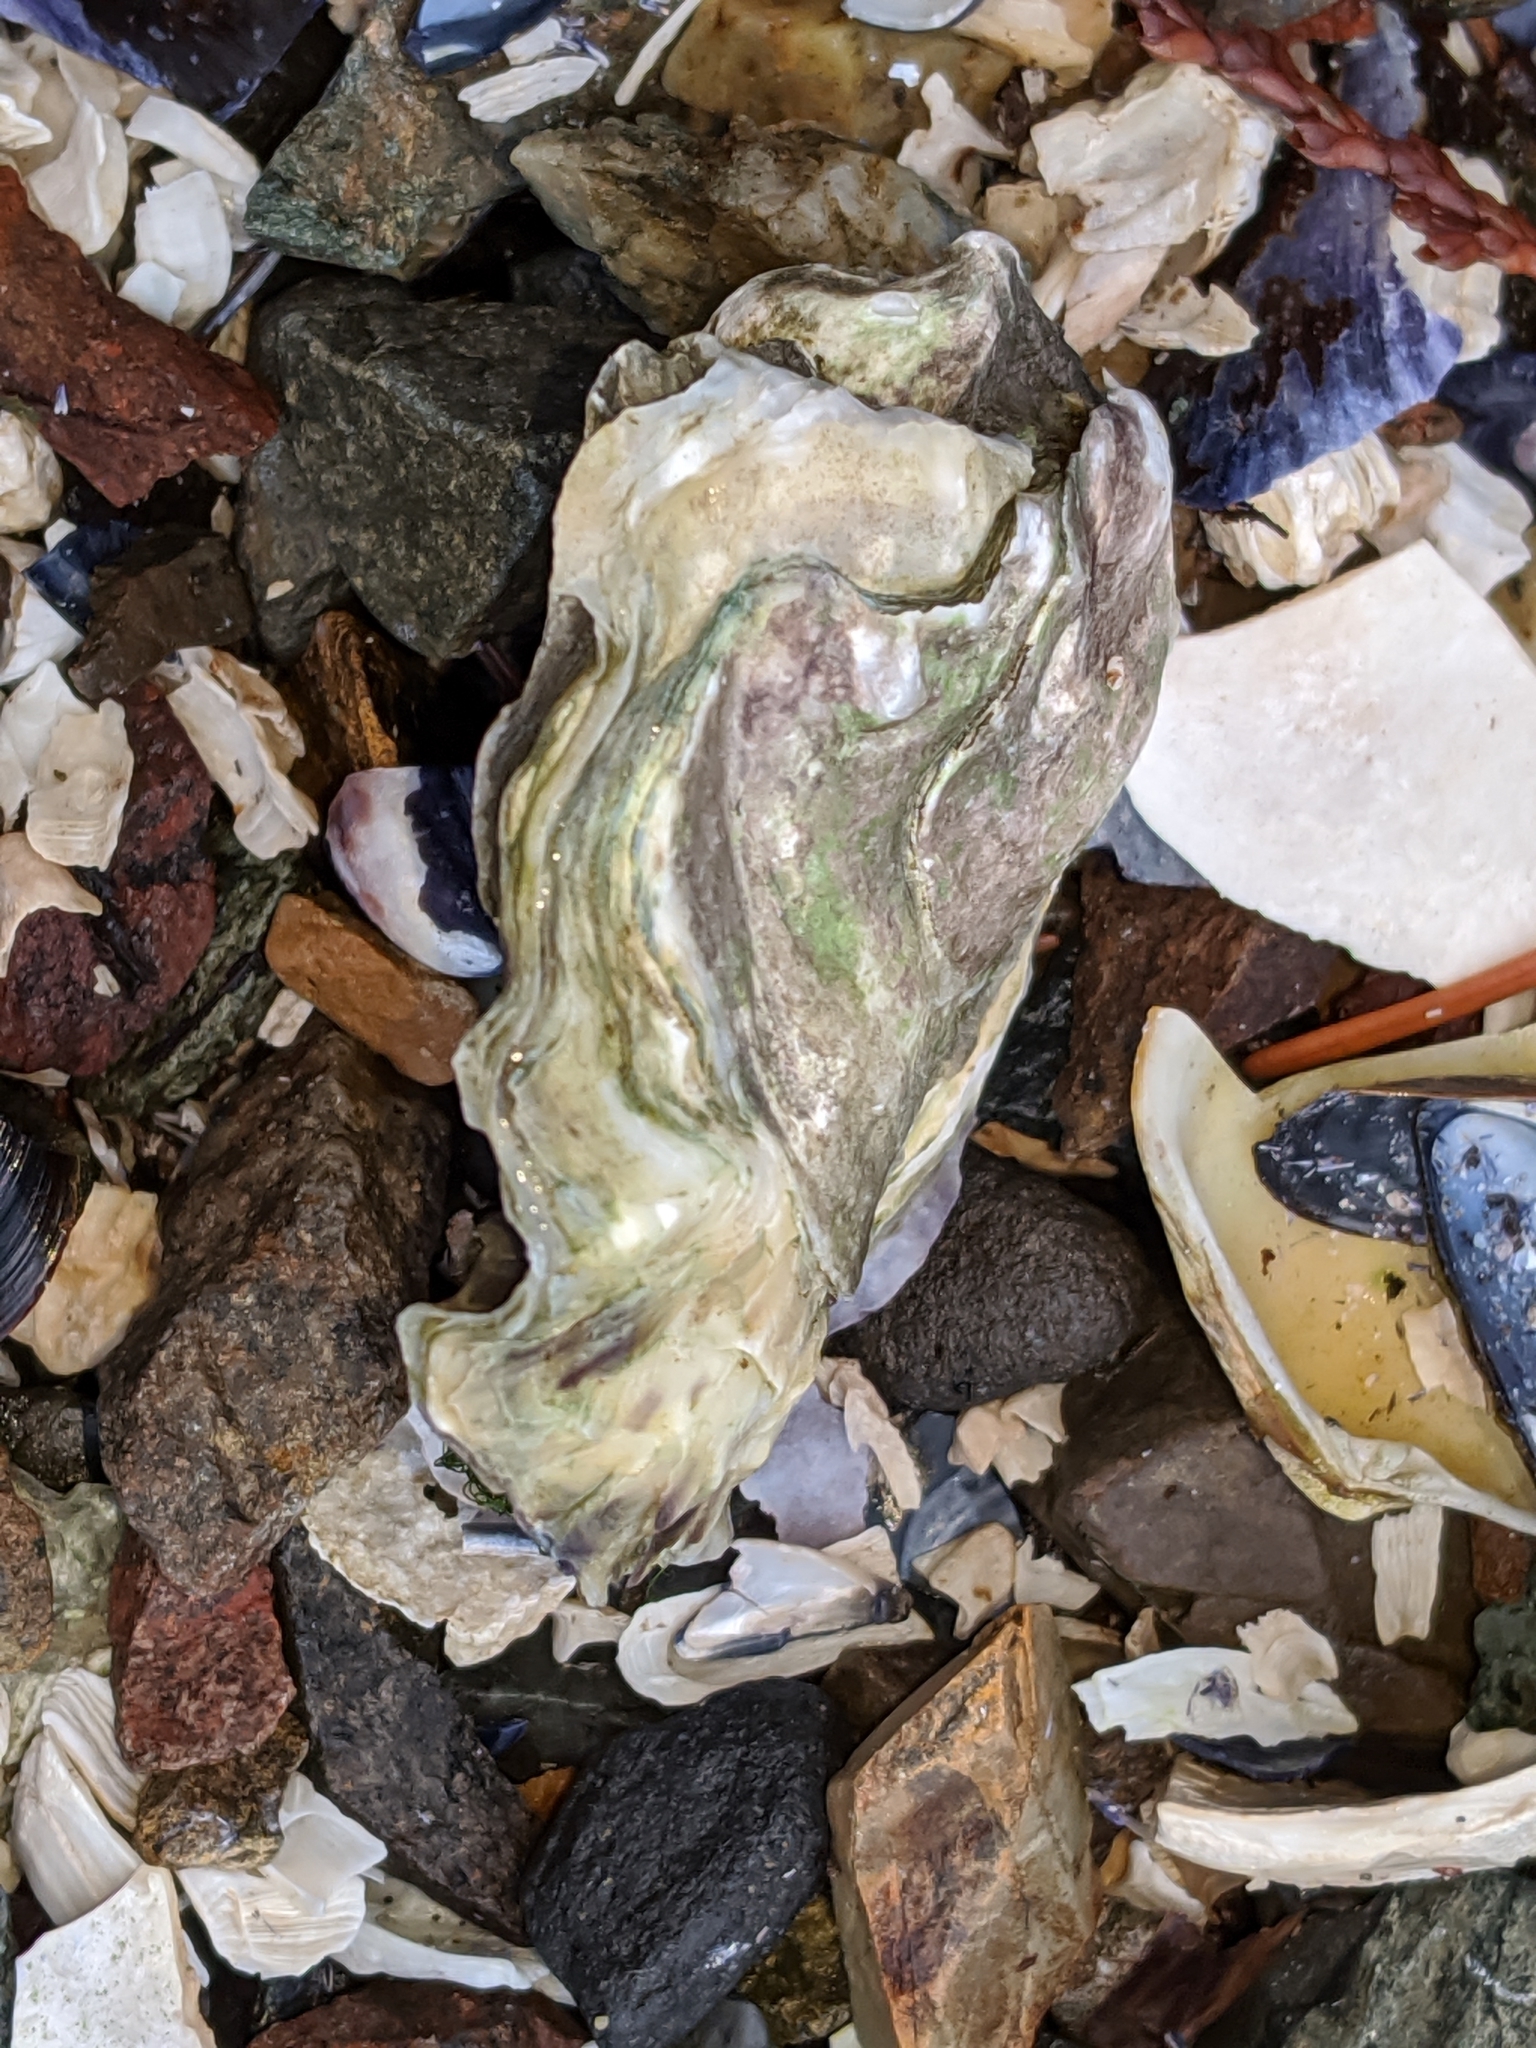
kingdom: Animalia
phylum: Mollusca
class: Bivalvia
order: Ostreida
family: Ostreidae
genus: Magallana
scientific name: Magallana gigas
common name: Pacific oyster
